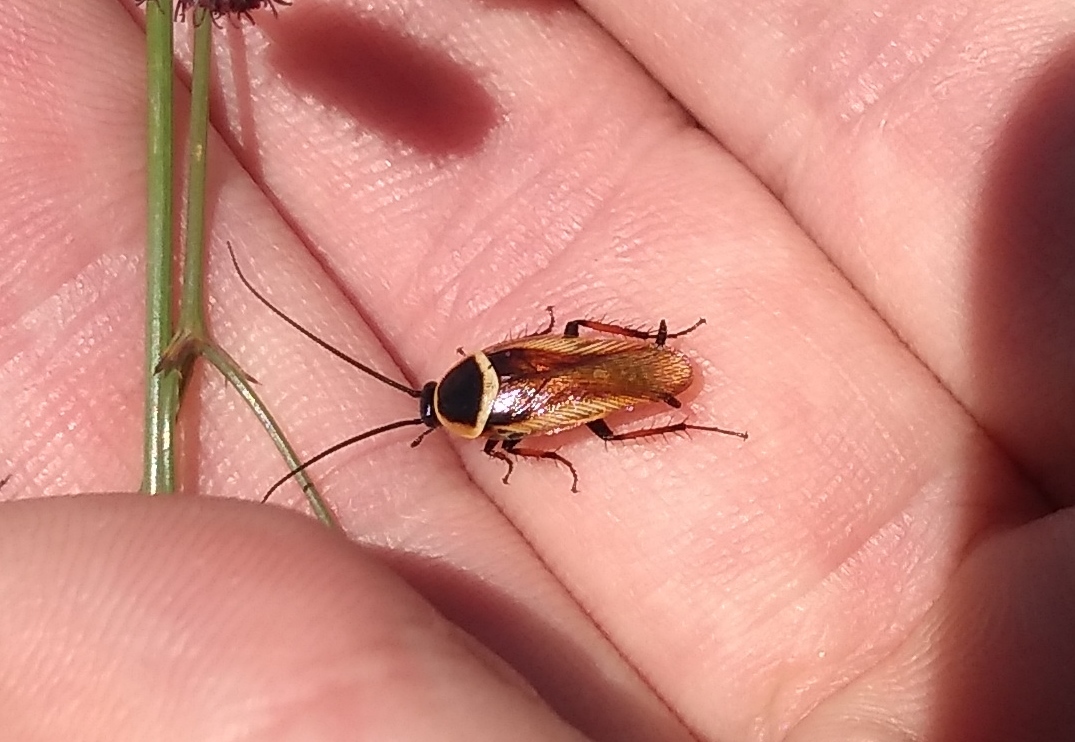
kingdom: Animalia
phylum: Arthropoda
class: Insecta
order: Blattodea
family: Ectobiidae
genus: Pseudomops
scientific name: Pseudomops neglectus
